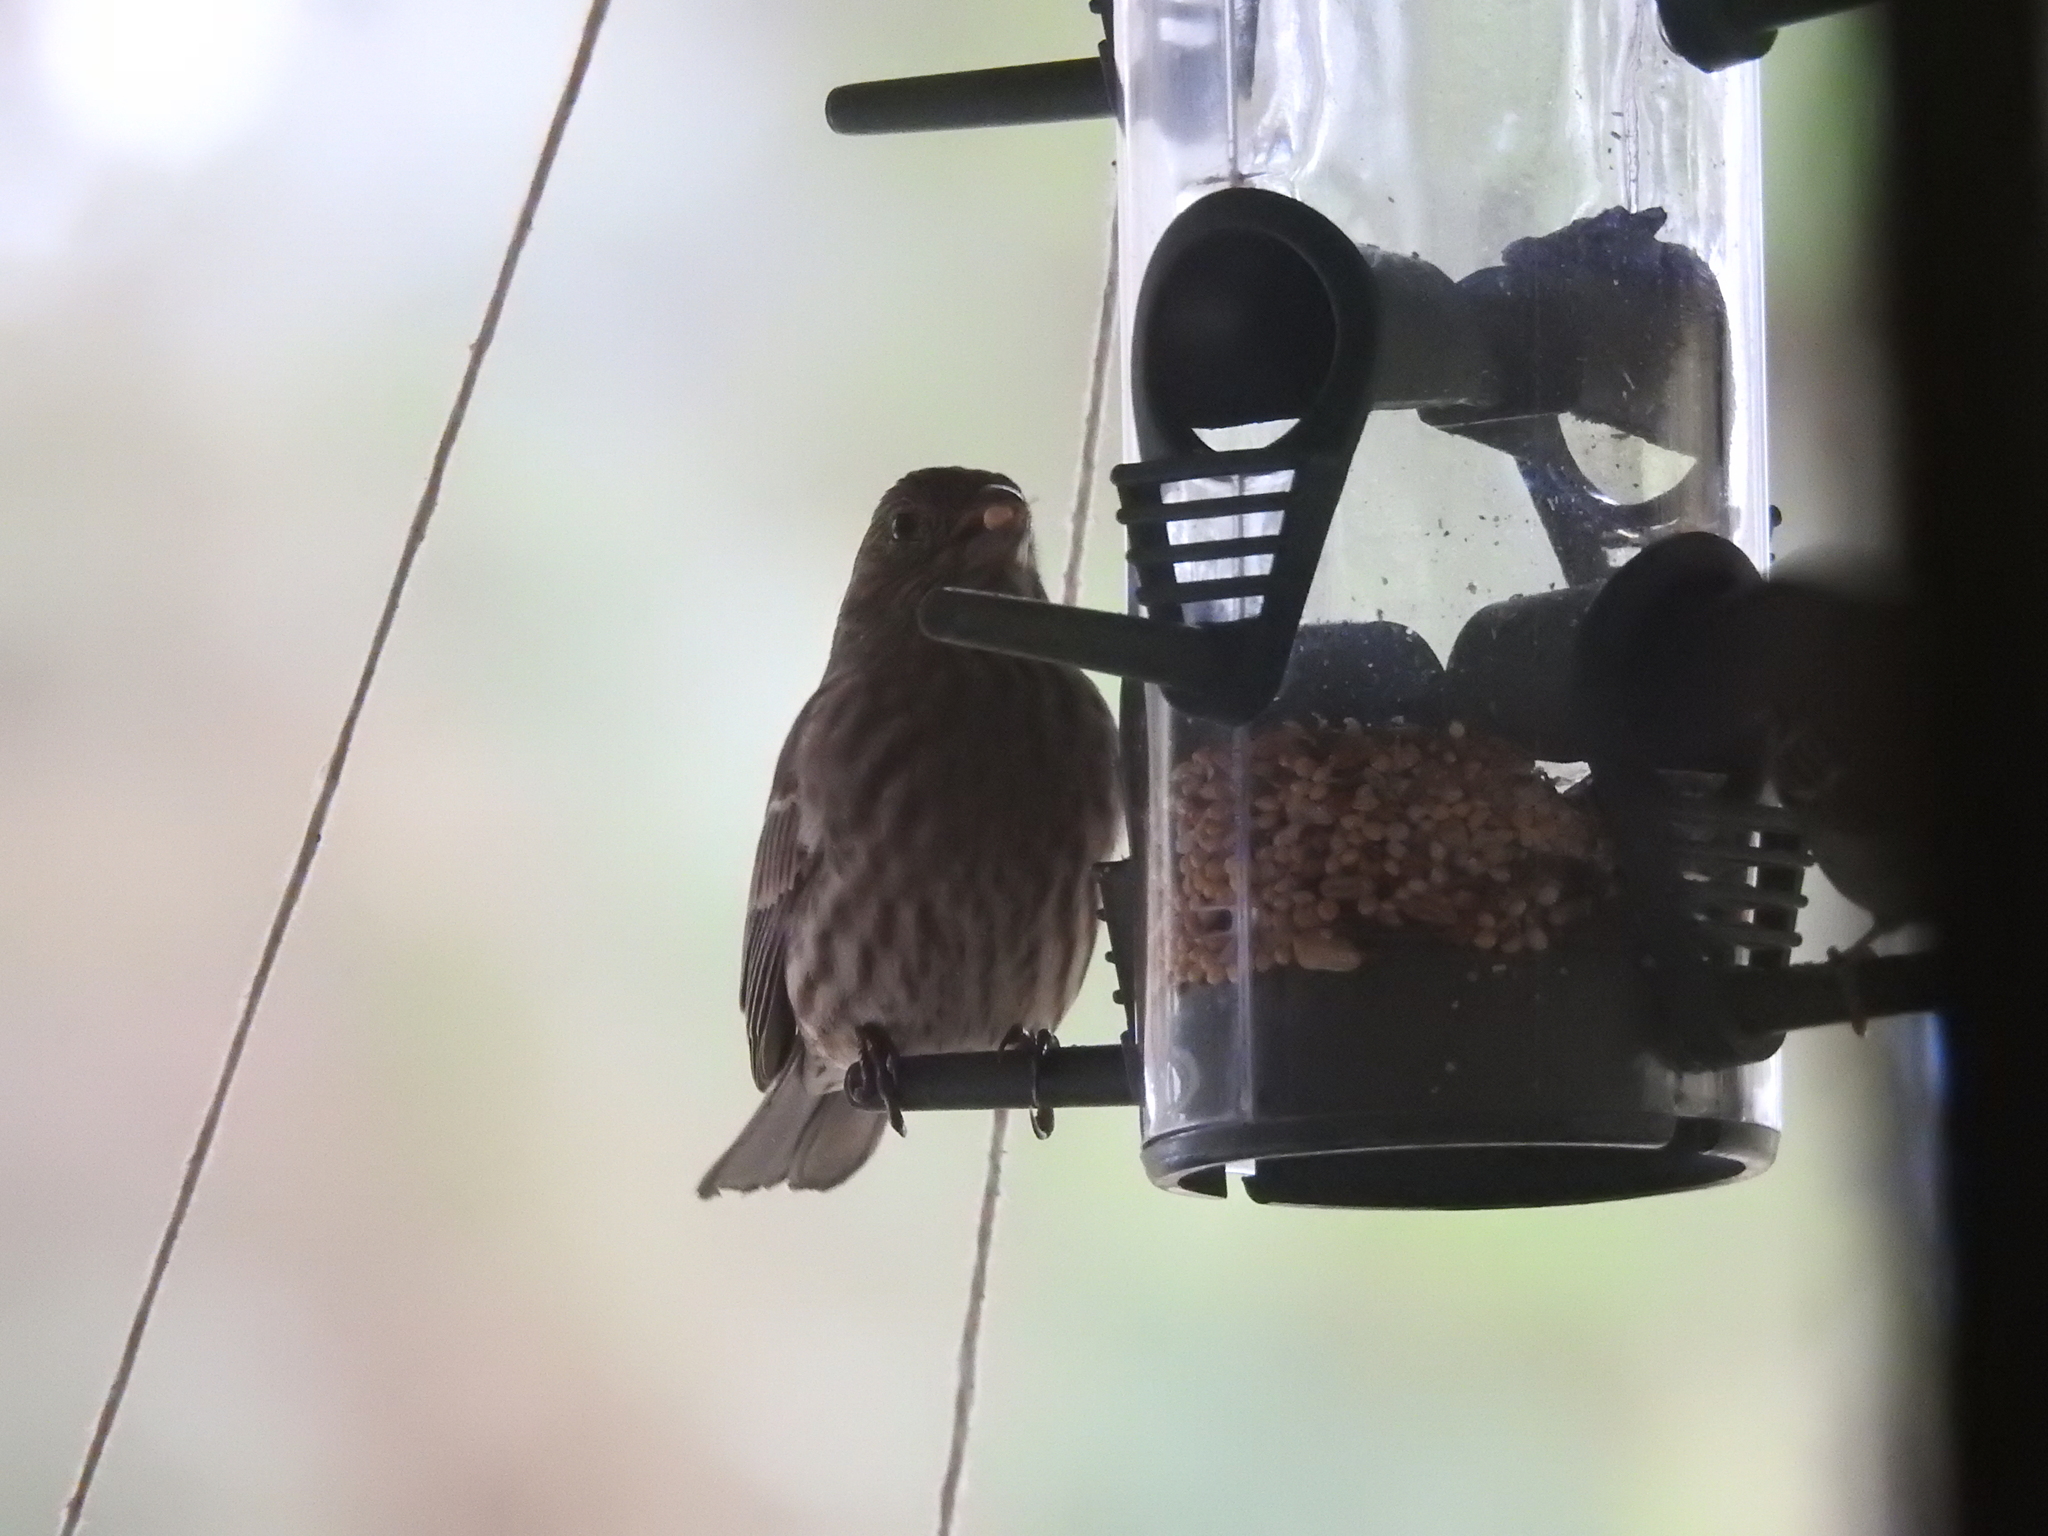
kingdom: Animalia
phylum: Chordata
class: Aves
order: Passeriformes
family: Fringillidae
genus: Haemorhous
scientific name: Haemorhous mexicanus
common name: House finch
